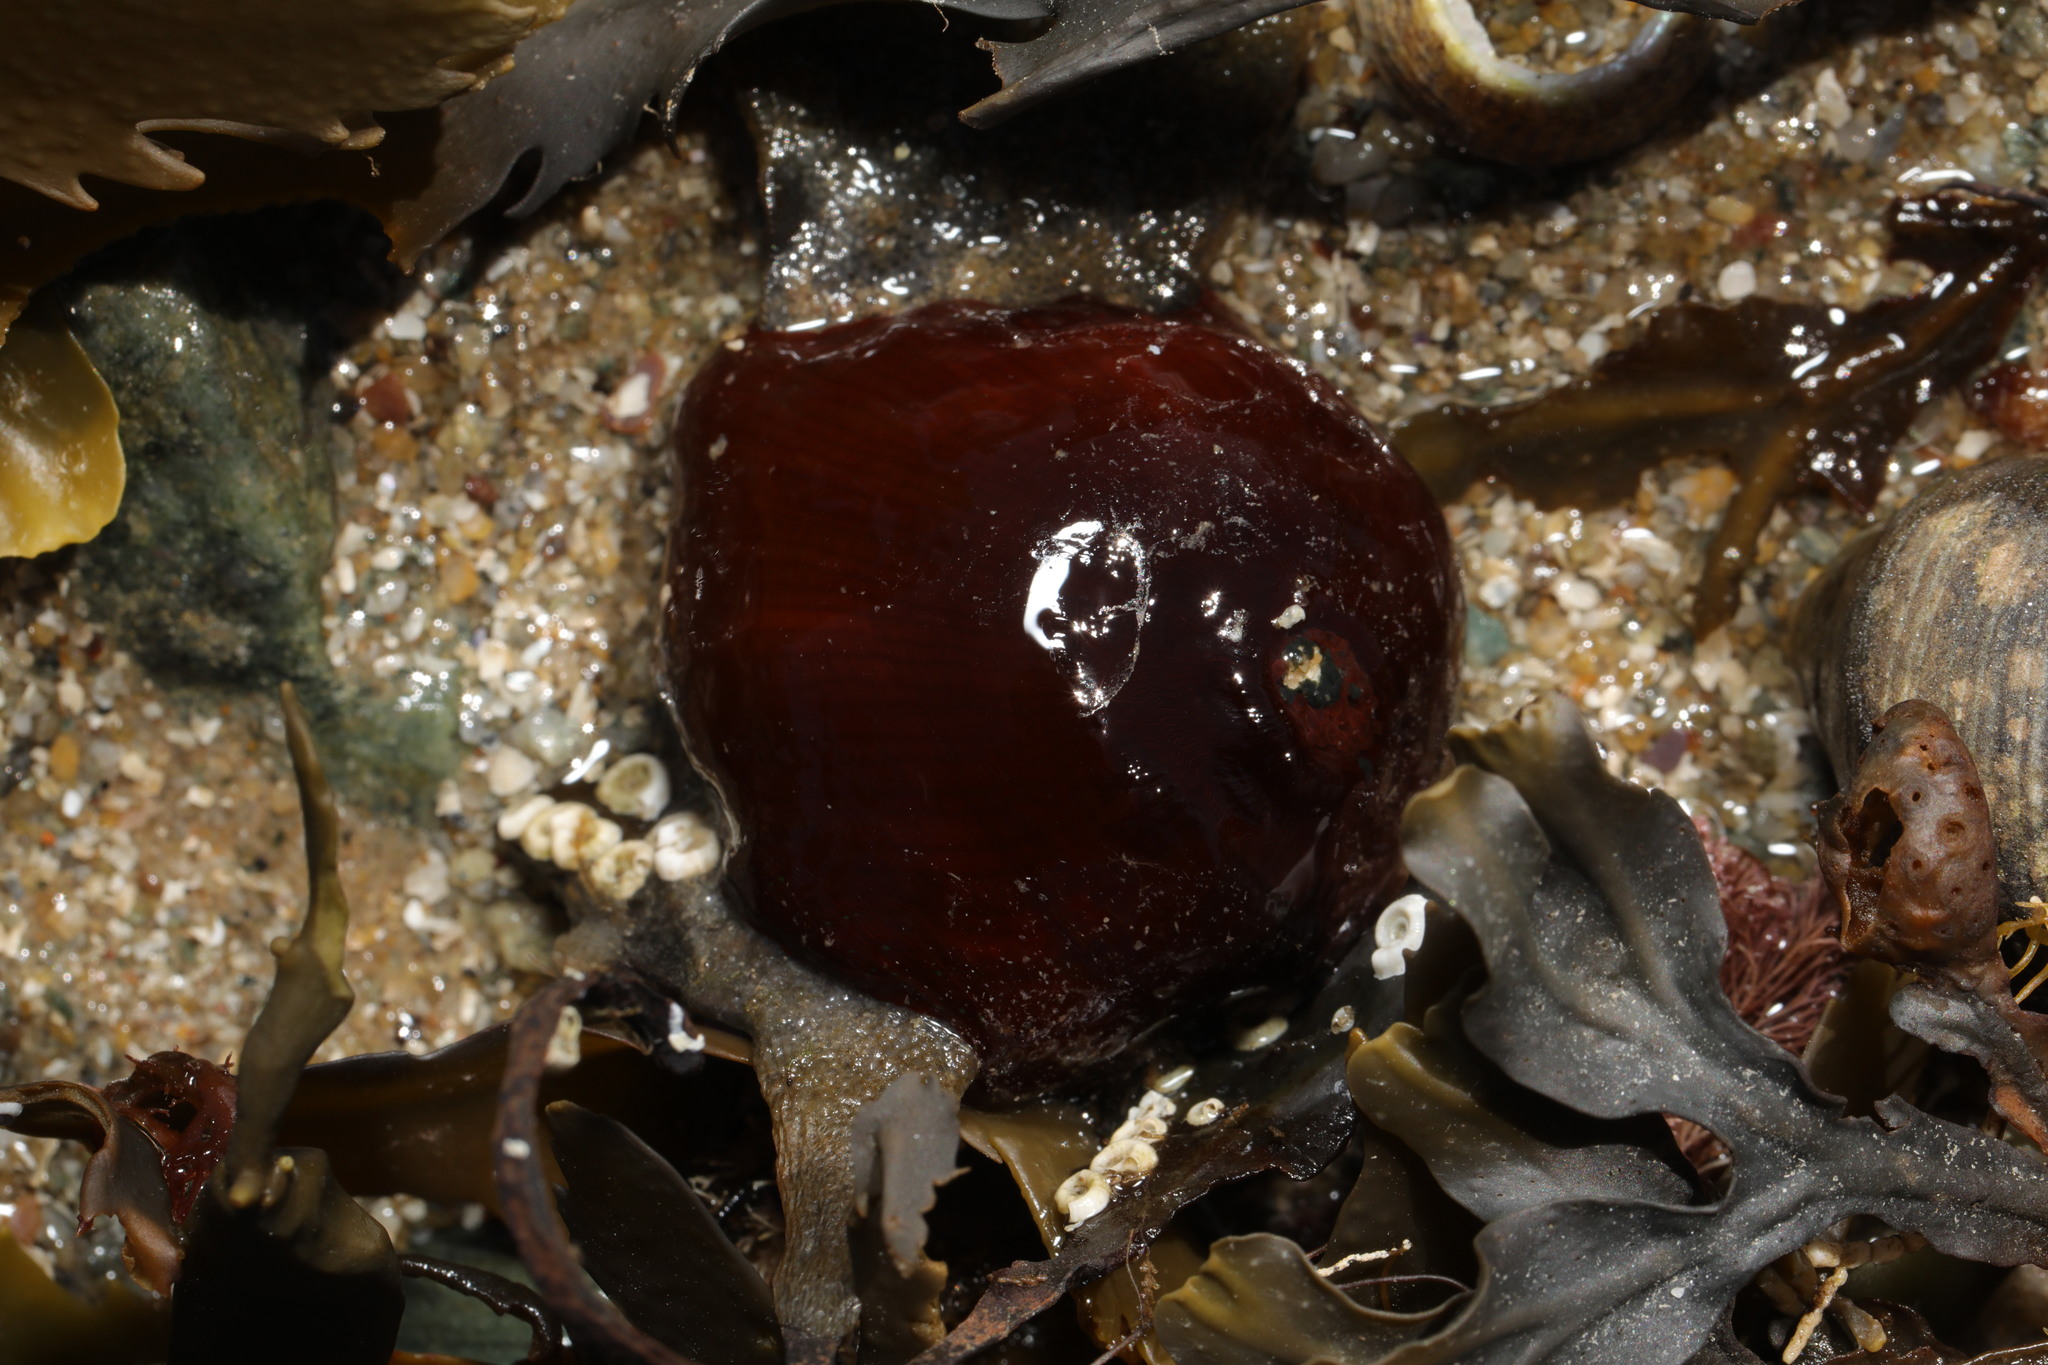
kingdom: Animalia
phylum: Cnidaria
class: Anthozoa
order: Actiniaria
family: Actiniidae
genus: Actinia
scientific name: Actinia equina
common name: Beadlet anemone
